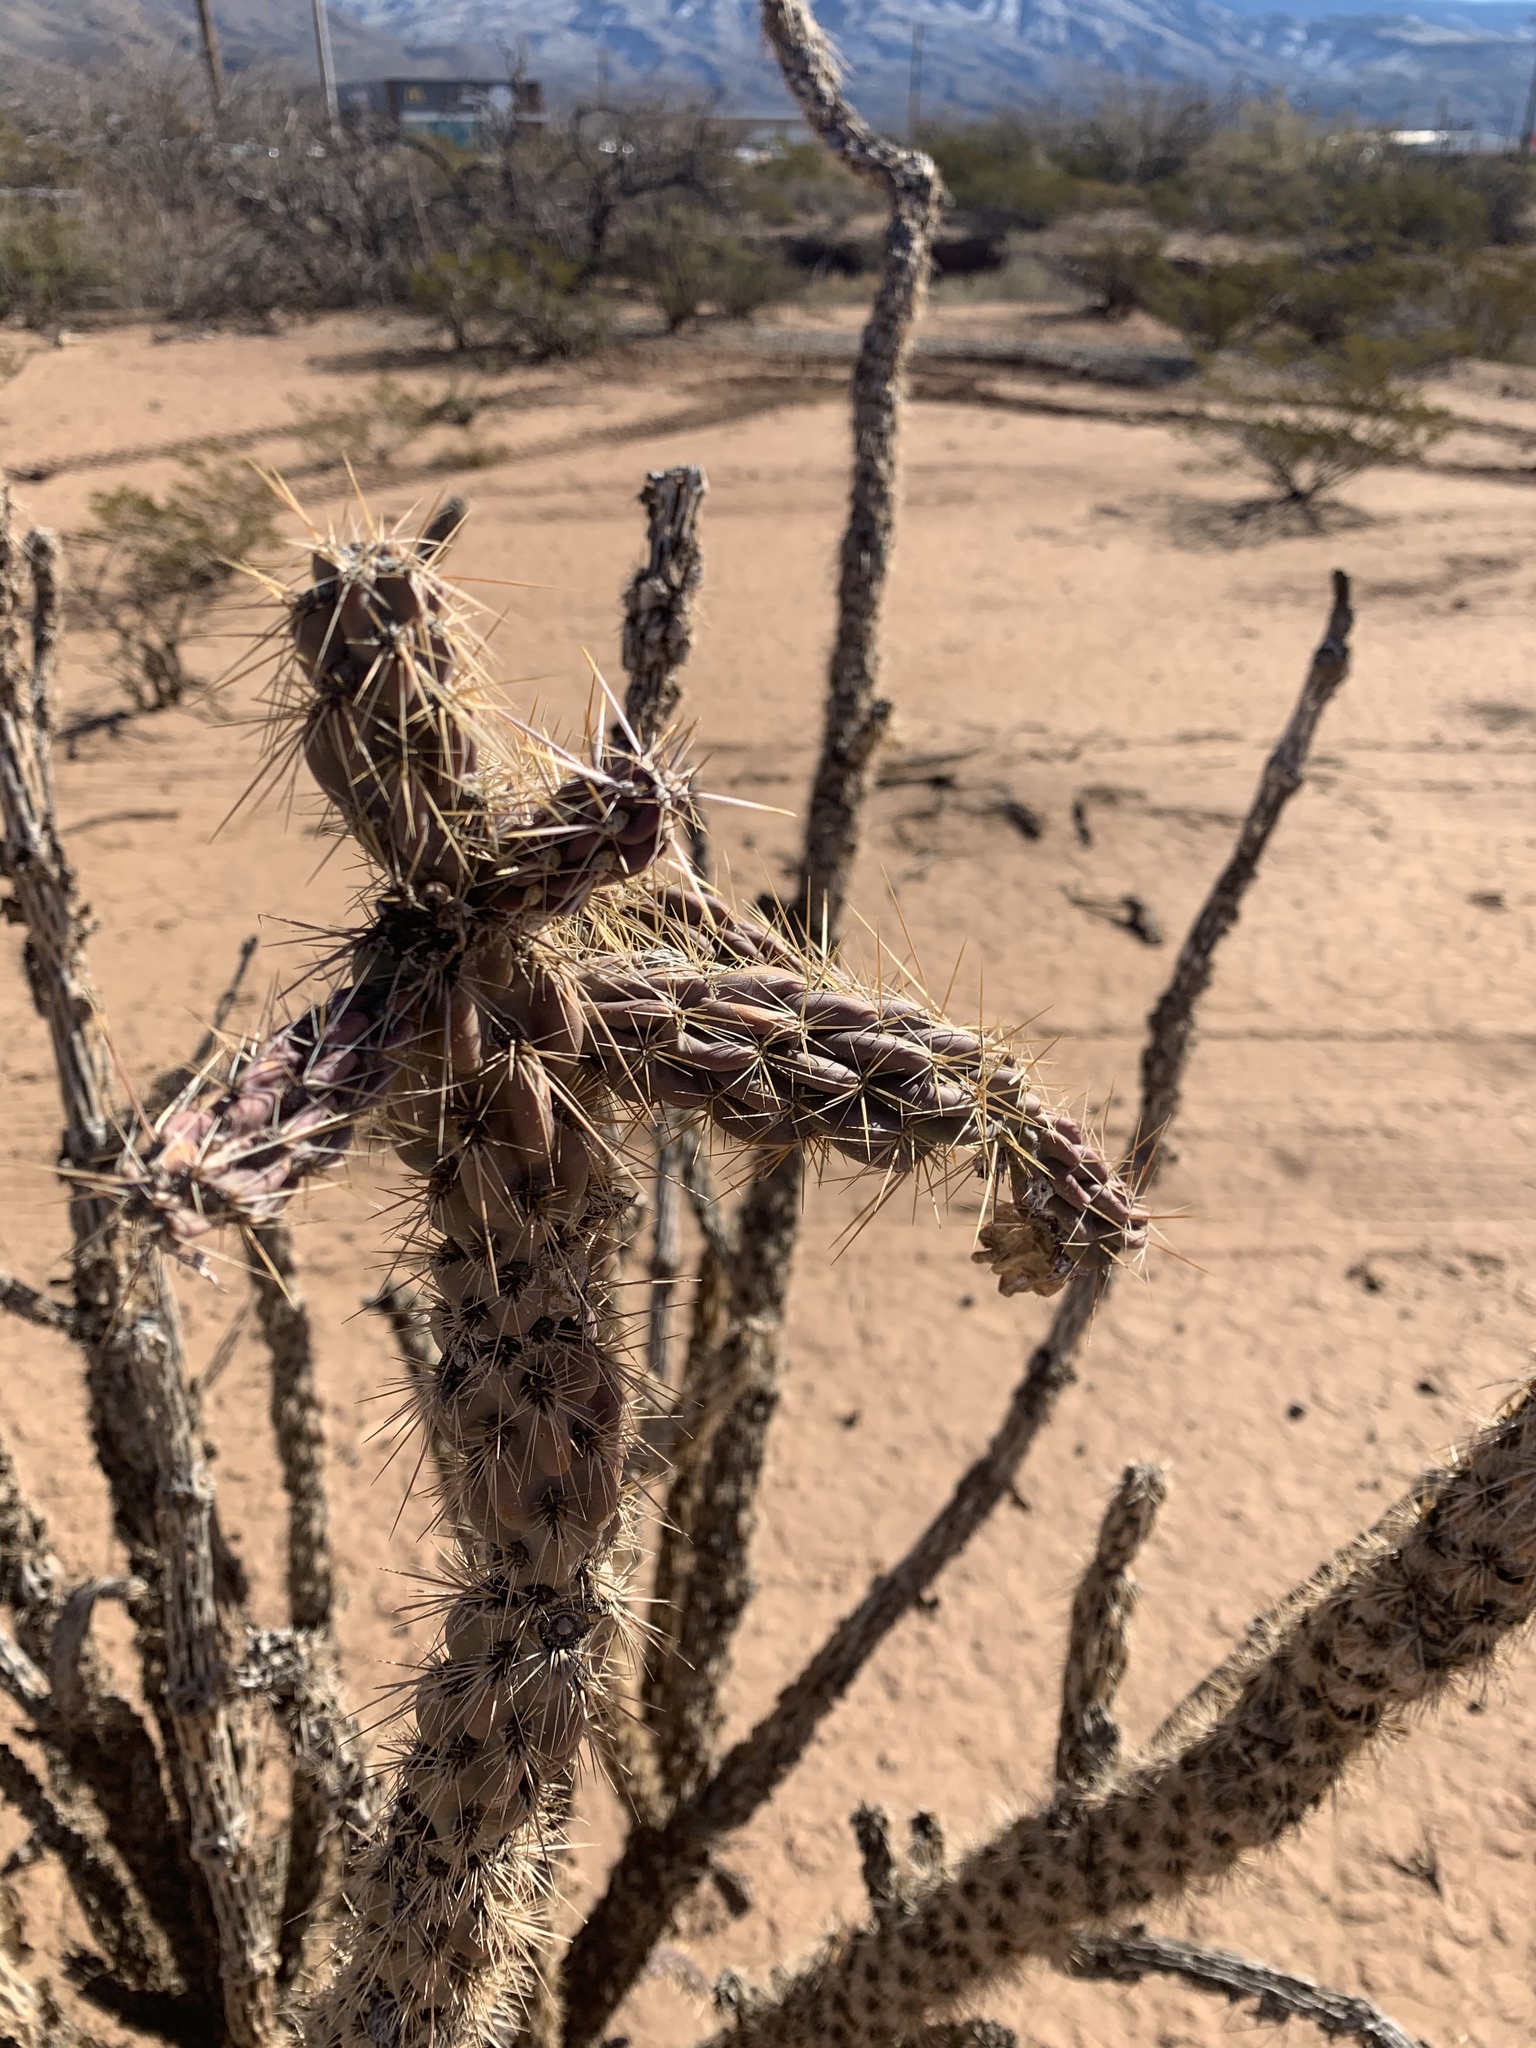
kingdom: Plantae
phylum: Tracheophyta
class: Magnoliopsida
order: Caryophyllales
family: Cactaceae
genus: Cylindropuntia
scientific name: Cylindropuntia imbricata
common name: Candelabrum cactus
